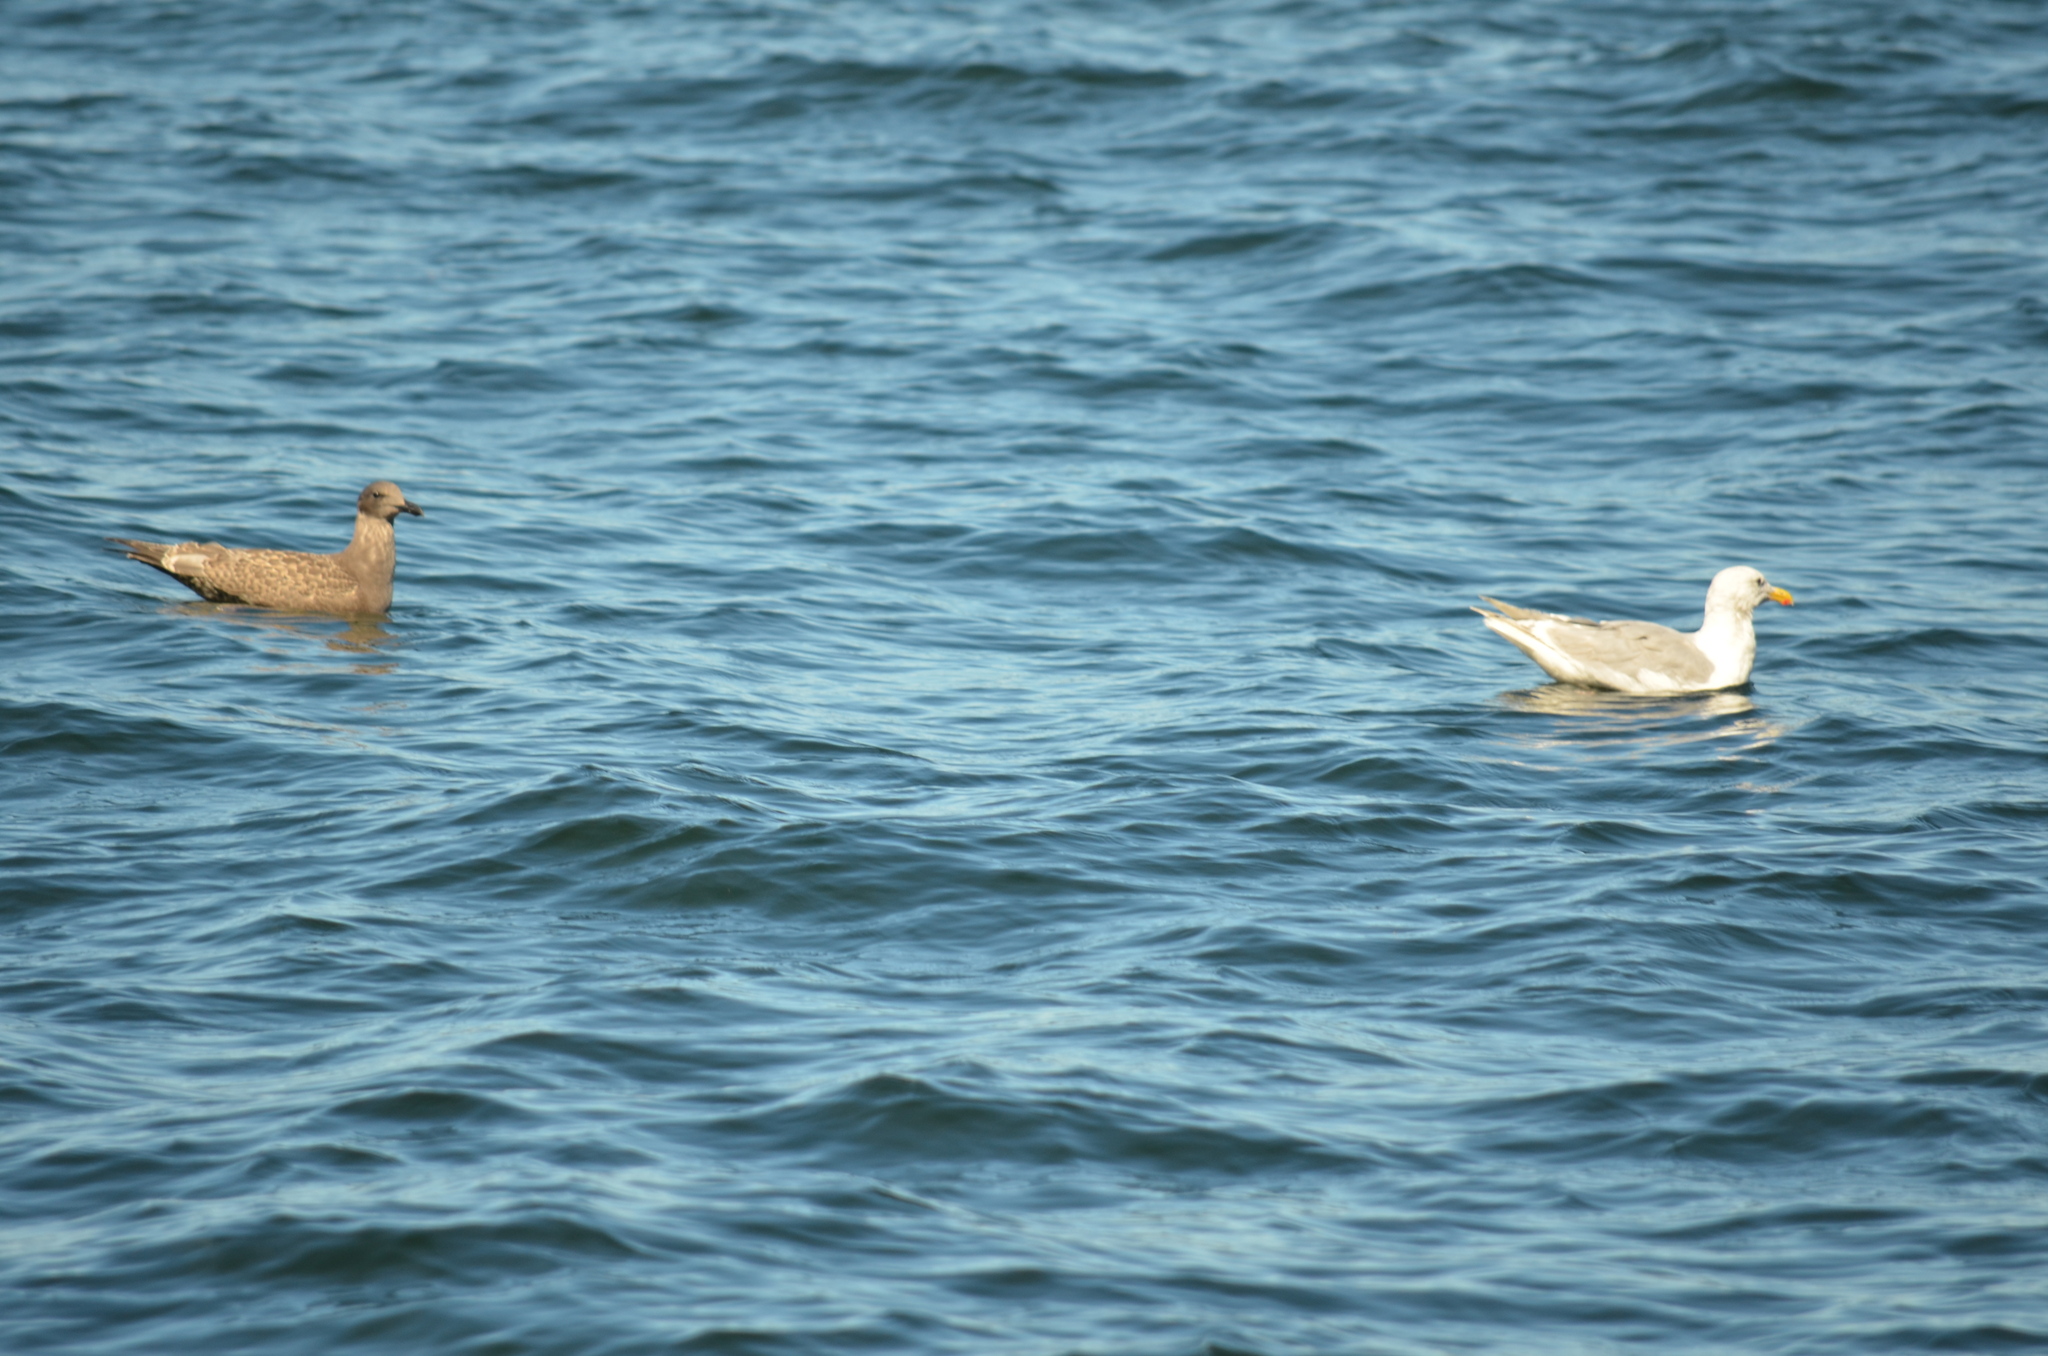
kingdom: Animalia
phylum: Chordata
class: Aves
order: Charadriiformes
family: Laridae
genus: Larus
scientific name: Larus glaucescens
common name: Glaucous-winged gull
